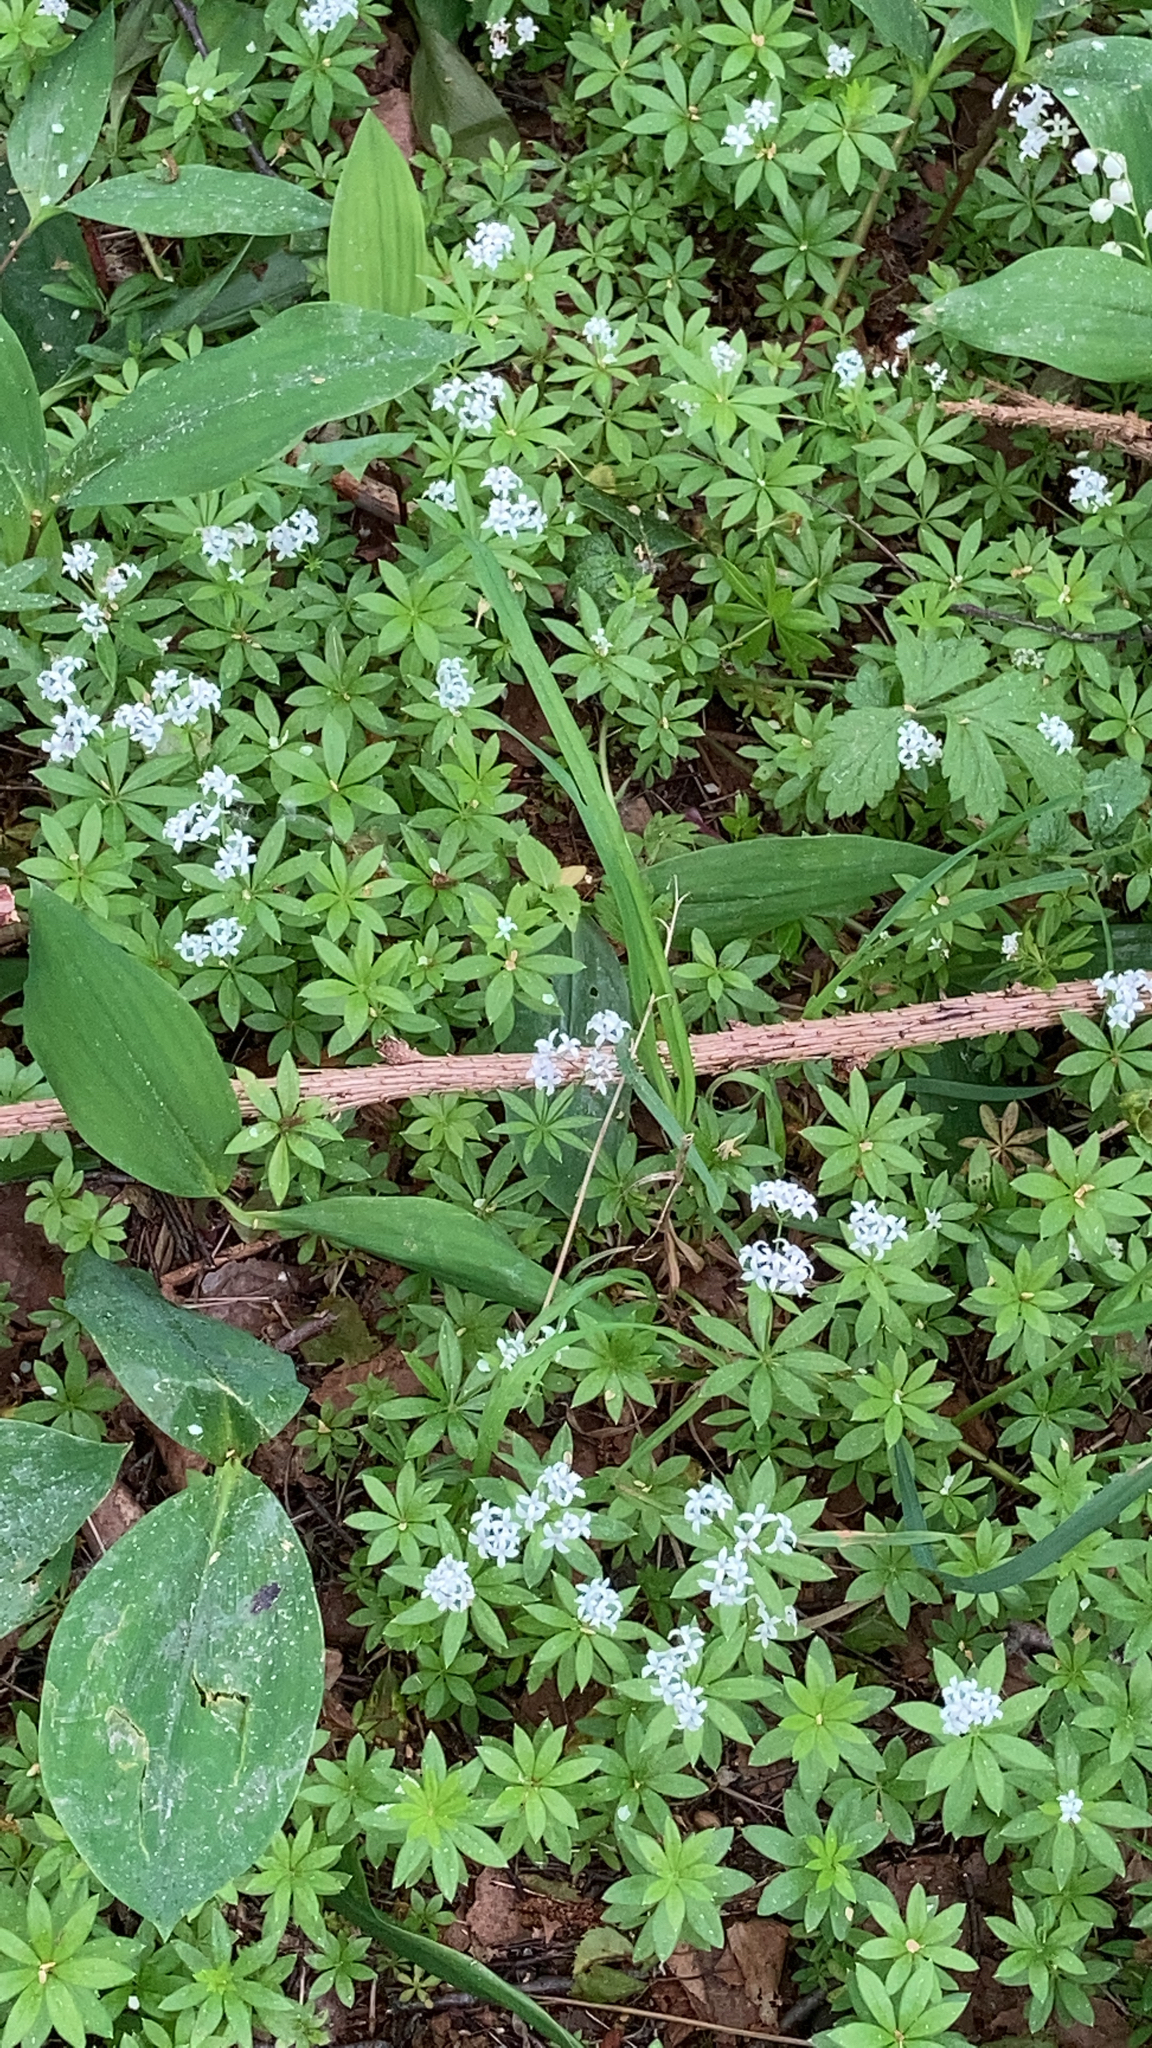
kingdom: Plantae
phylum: Tracheophyta
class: Magnoliopsida
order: Gentianales
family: Rubiaceae
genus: Galium
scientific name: Galium odoratum
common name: Sweet woodruff
